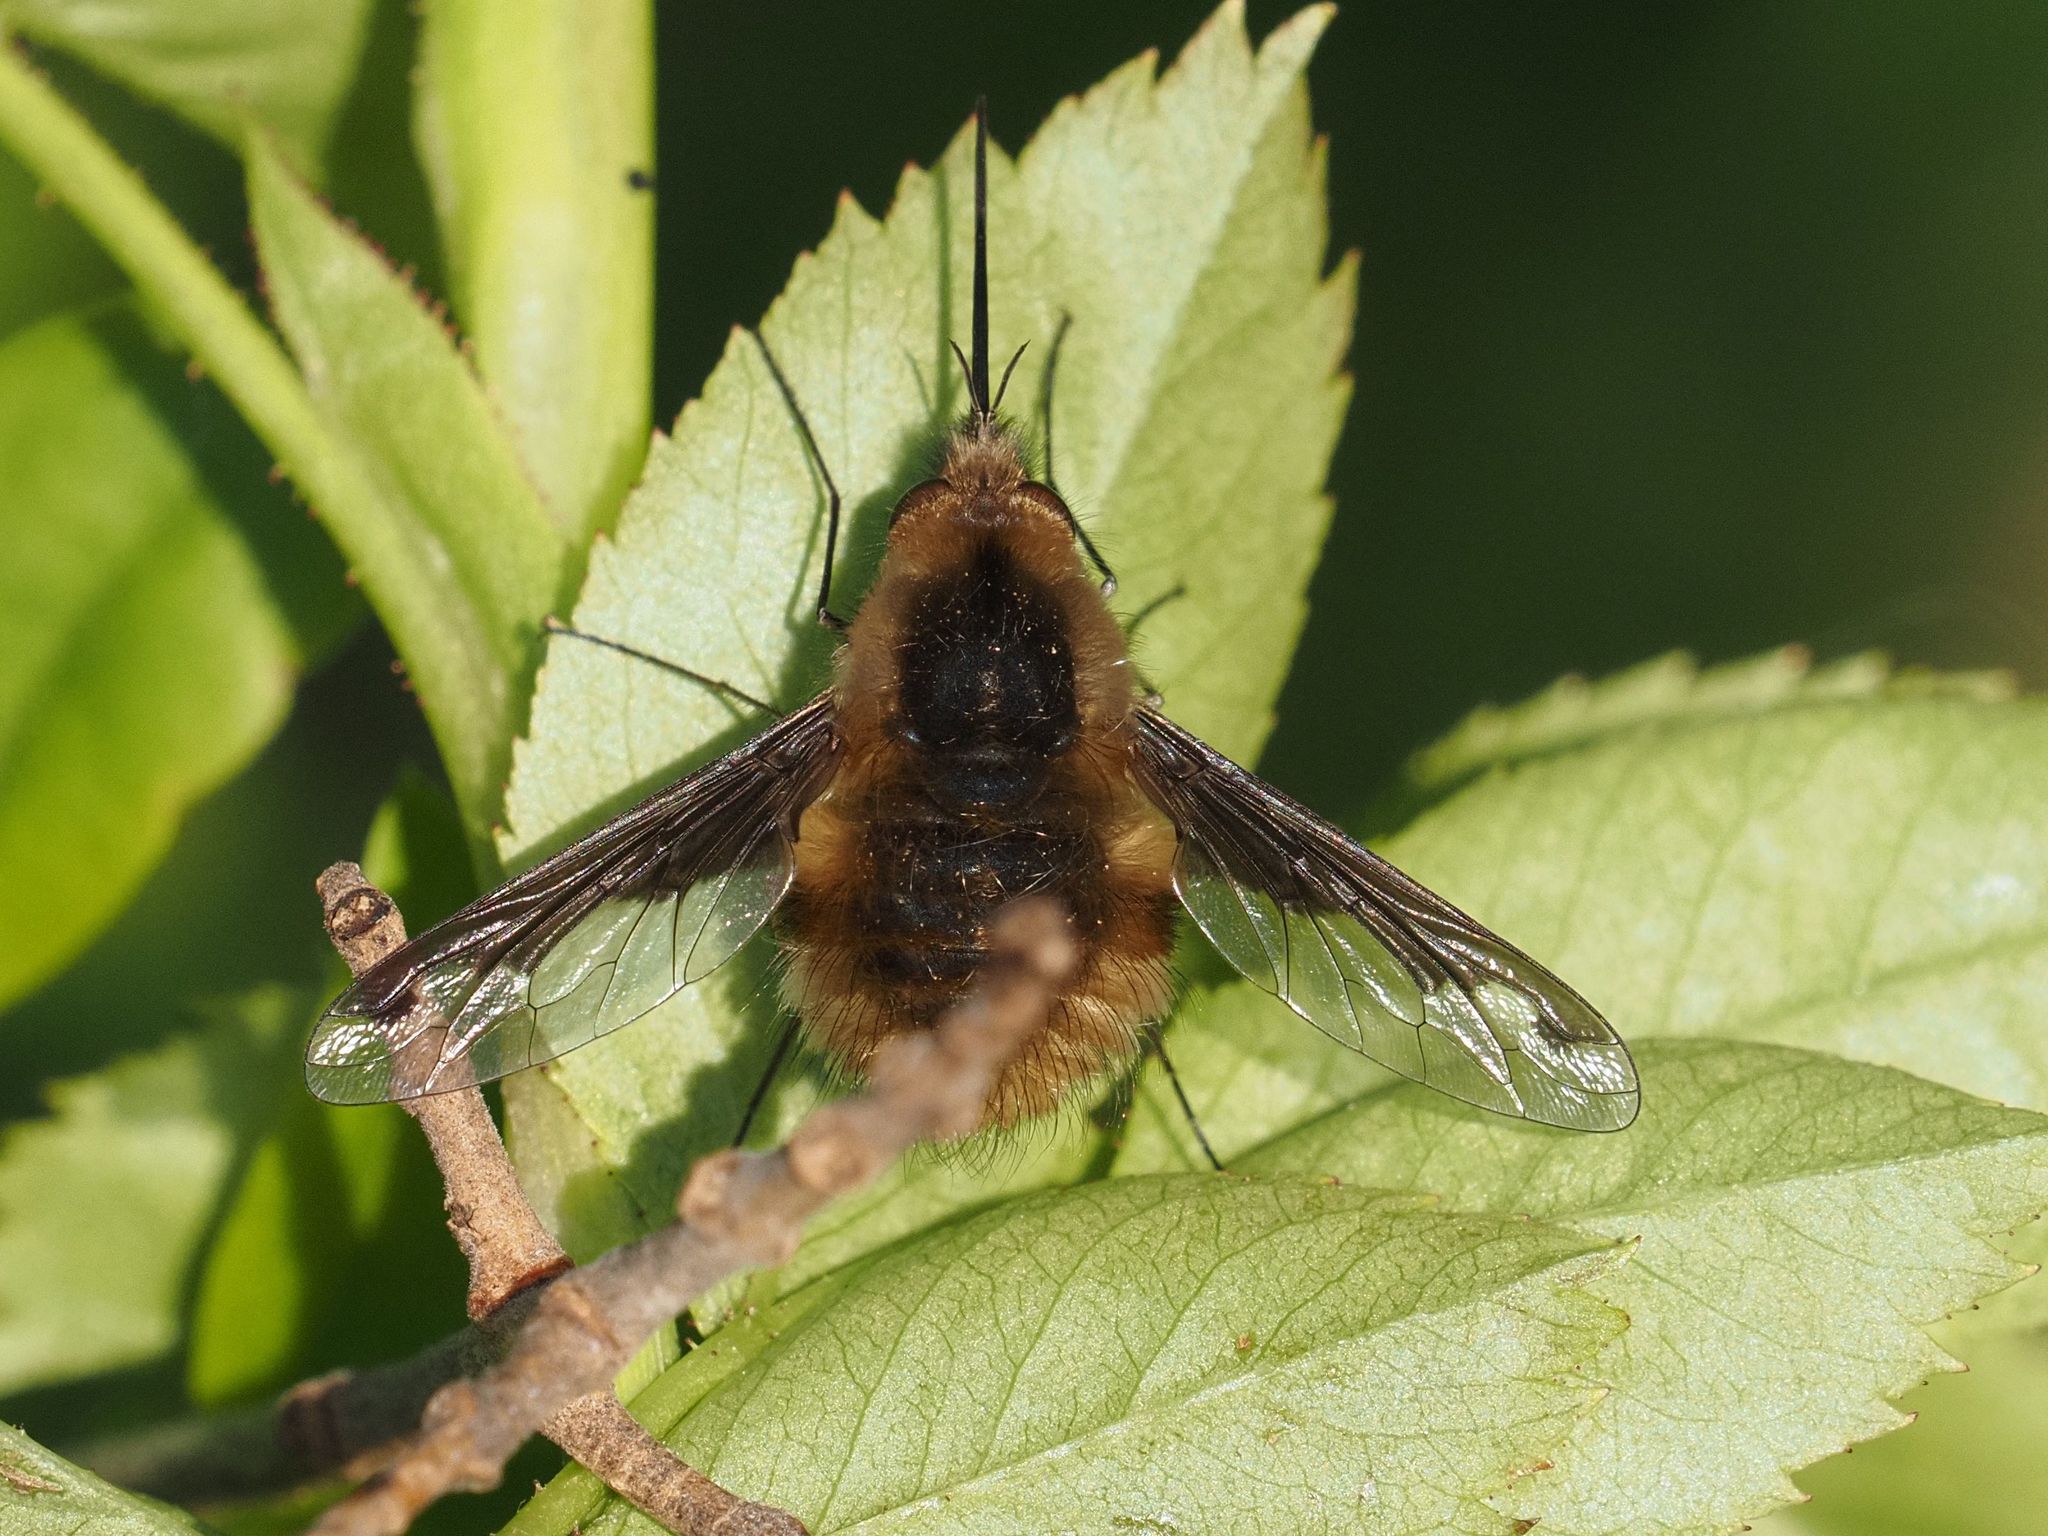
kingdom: Animalia
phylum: Arthropoda
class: Insecta
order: Diptera
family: Bombyliidae
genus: Bombylius
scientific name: Bombylius major
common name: Bee fly
